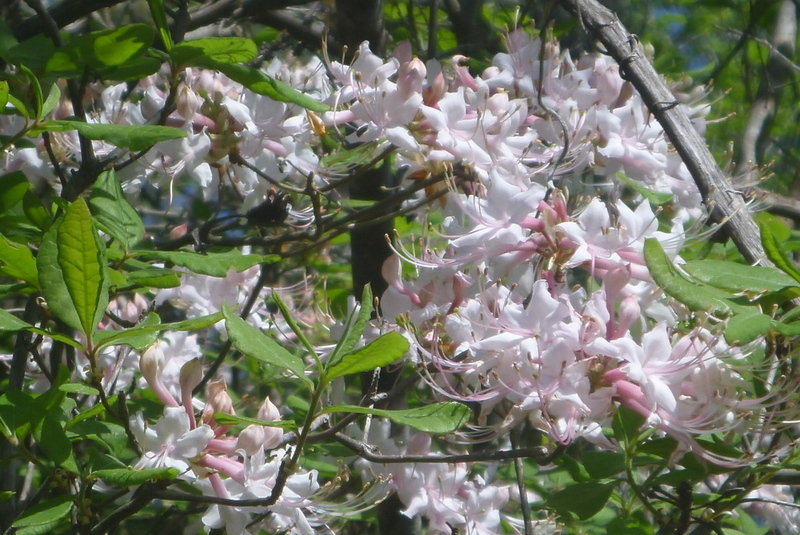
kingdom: Plantae
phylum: Tracheophyta
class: Magnoliopsida
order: Ericales
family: Ericaceae
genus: Rhododendron
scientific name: Rhododendron canescens
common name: Mountain azalea
